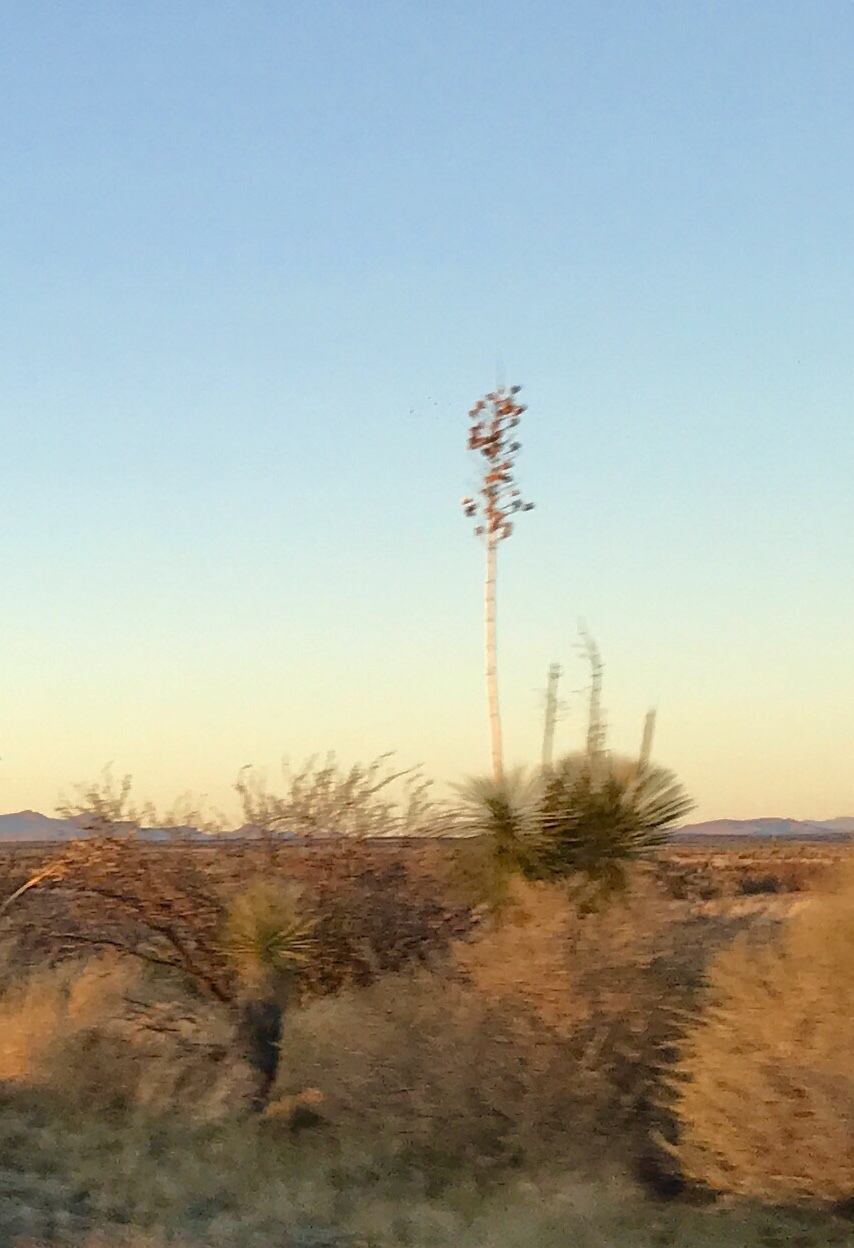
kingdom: Plantae
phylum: Tracheophyta
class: Liliopsida
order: Asparagales
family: Asparagaceae
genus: Yucca
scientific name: Yucca elata
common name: Palmella
